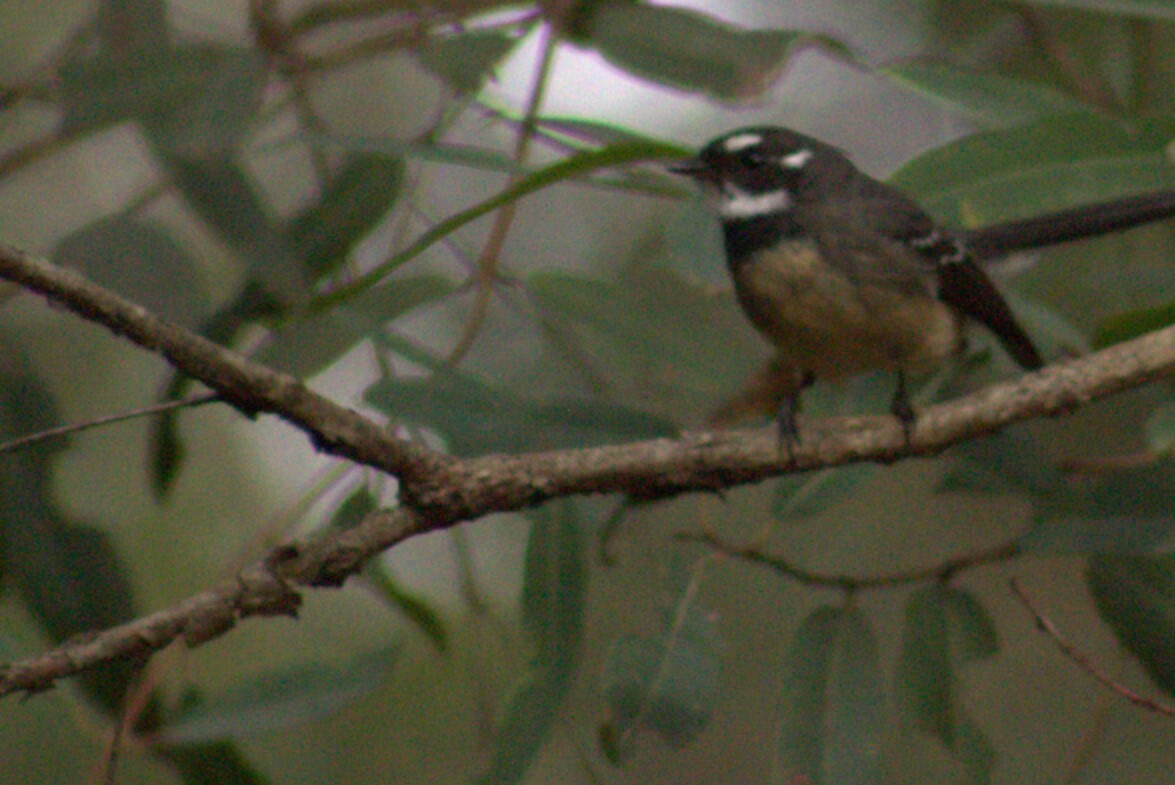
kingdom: Animalia
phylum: Chordata
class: Aves
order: Passeriformes
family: Rhipiduridae
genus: Rhipidura
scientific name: Rhipidura albiscapa
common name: Grey fantail
